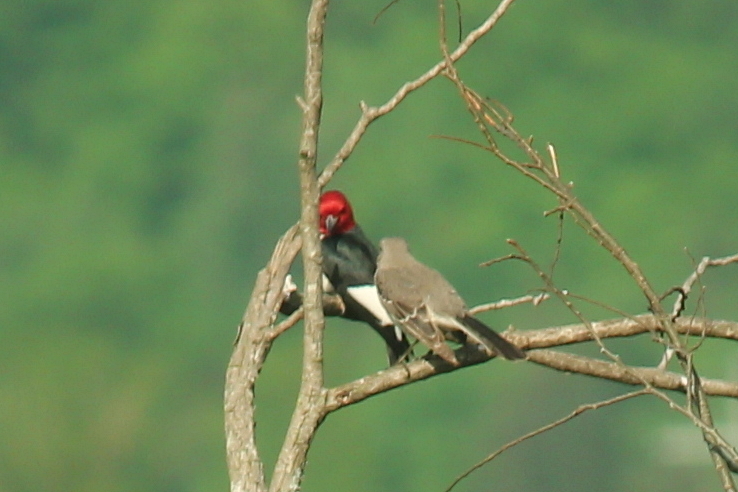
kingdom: Animalia
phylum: Chordata
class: Aves
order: Passeriformes
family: Mimidae
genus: Mimus
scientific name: Mimus polyglottos
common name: Northern mockingbird
